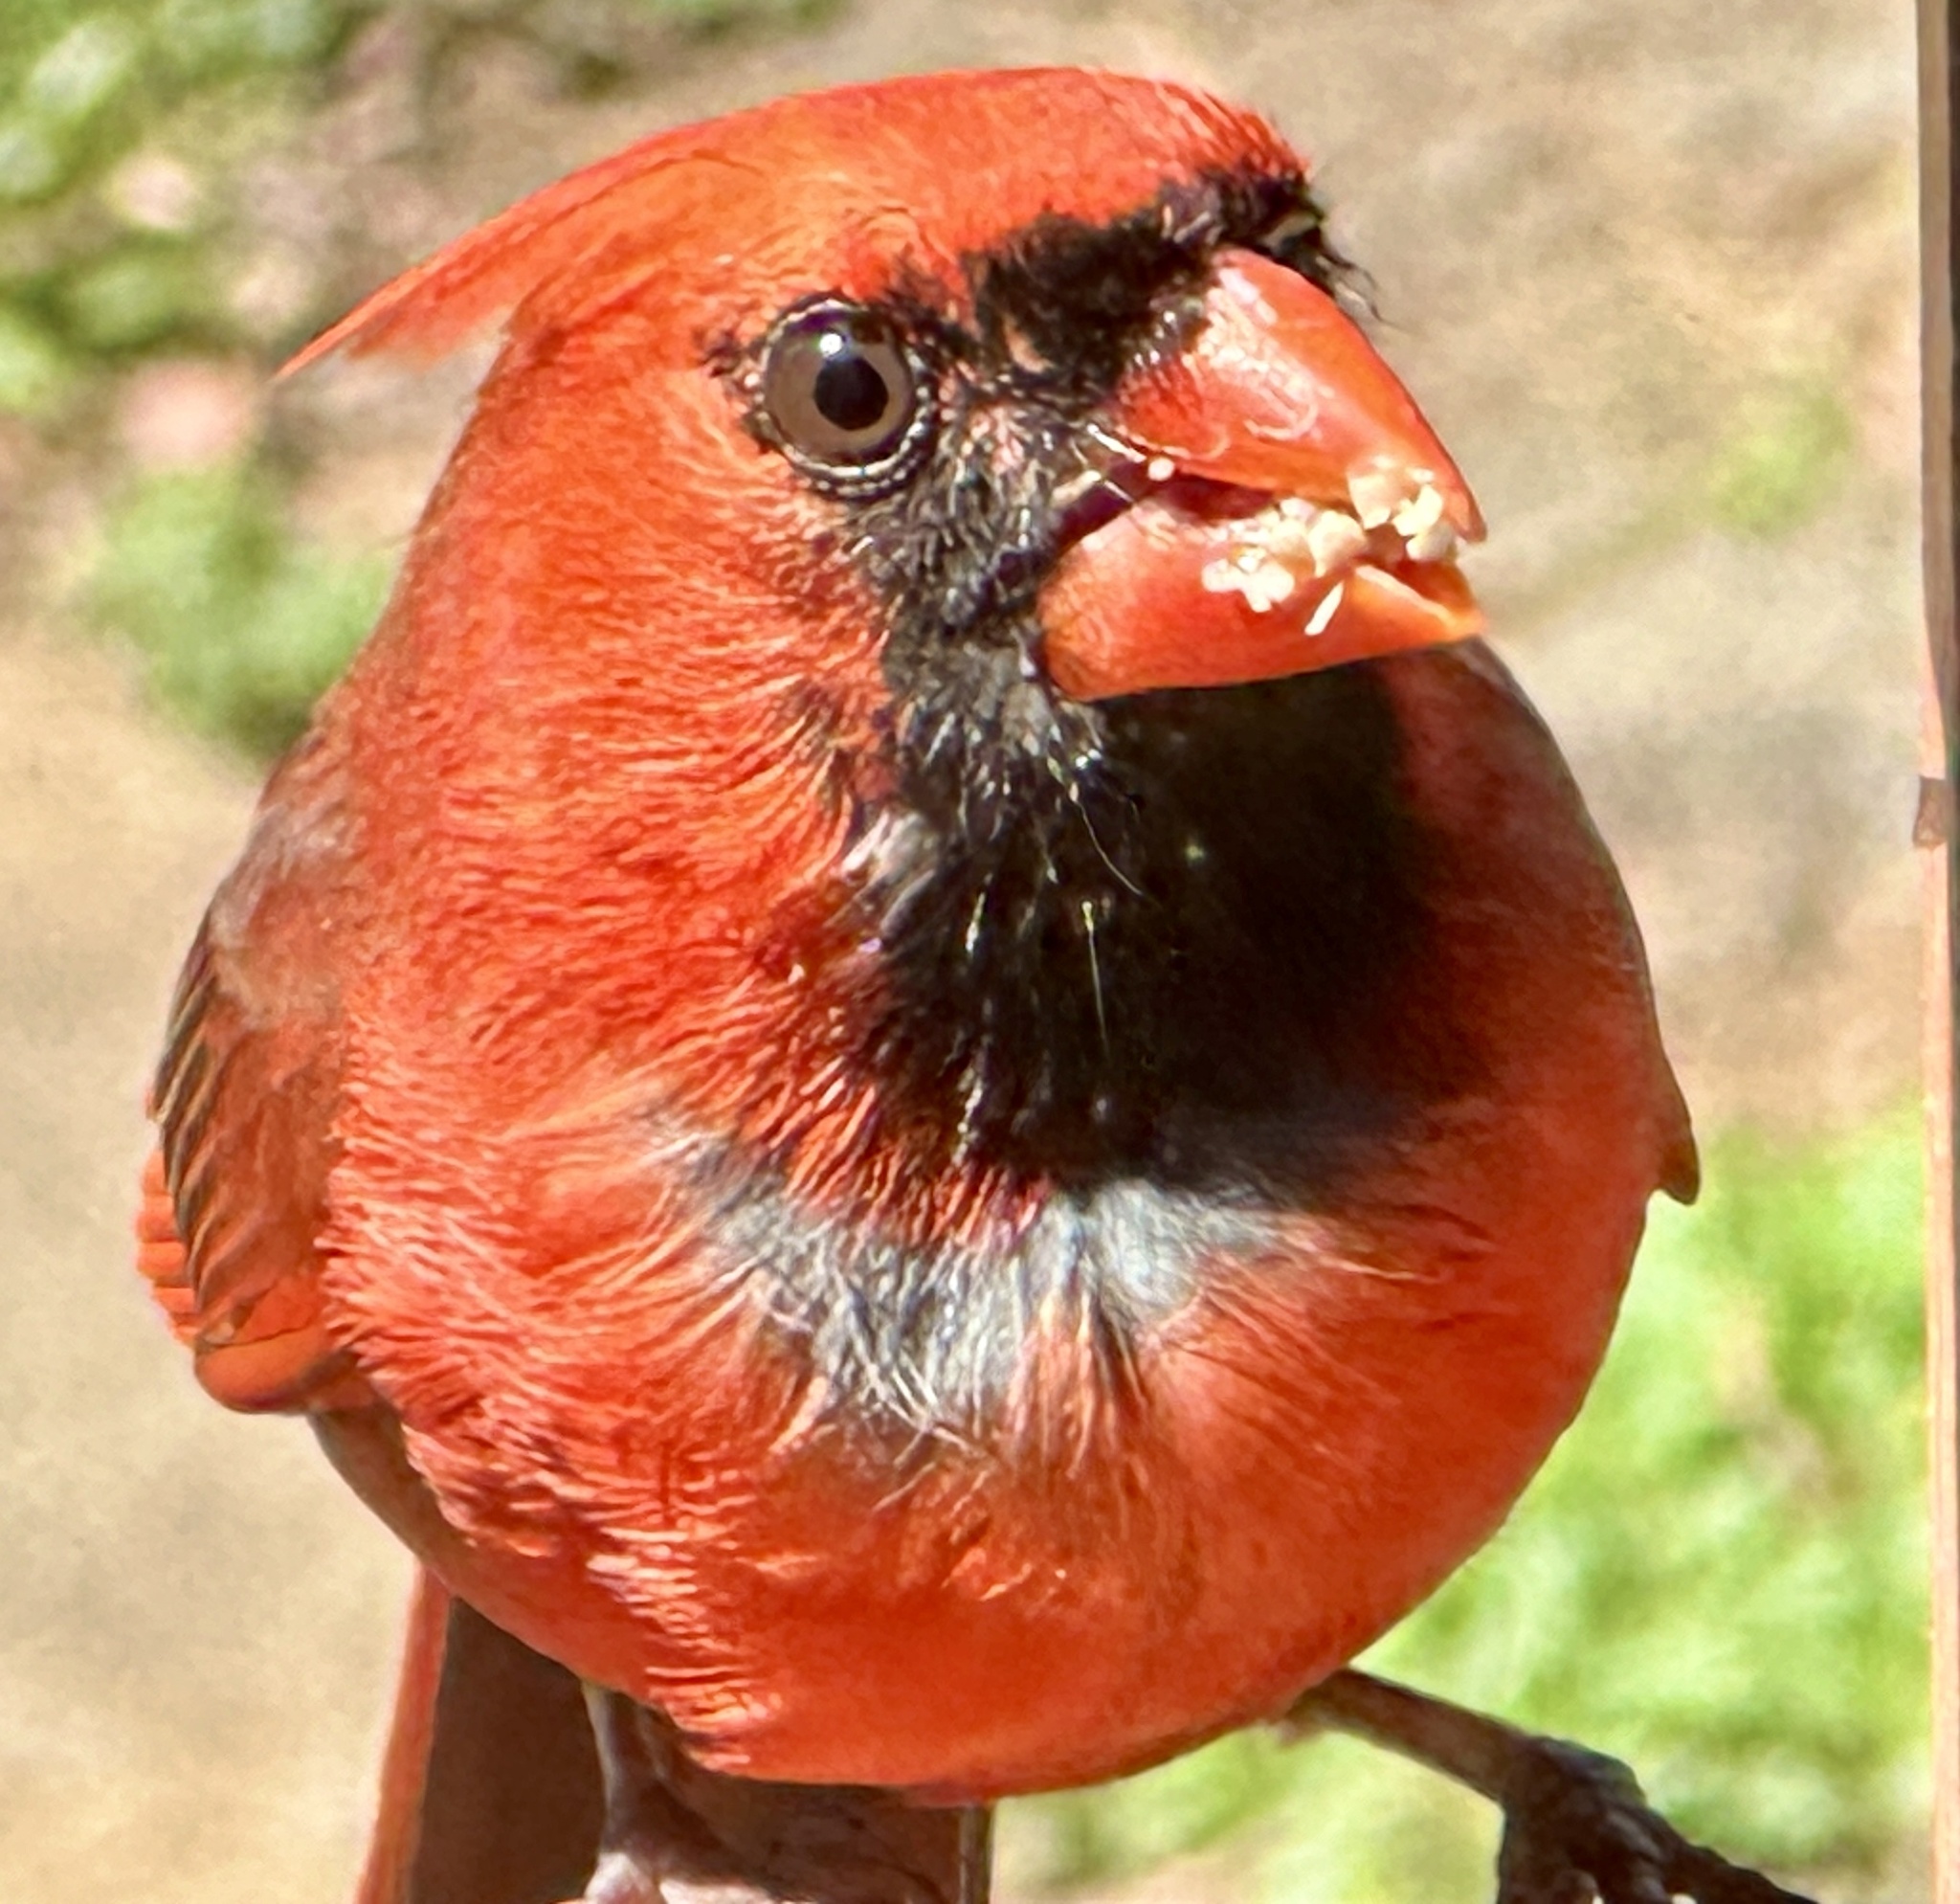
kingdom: Animalia
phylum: Chordata
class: Aves
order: Passeriformes
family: Cardinalidae
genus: Cardinalis
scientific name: Cardinalis cardinalis
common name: Northern cardinal
